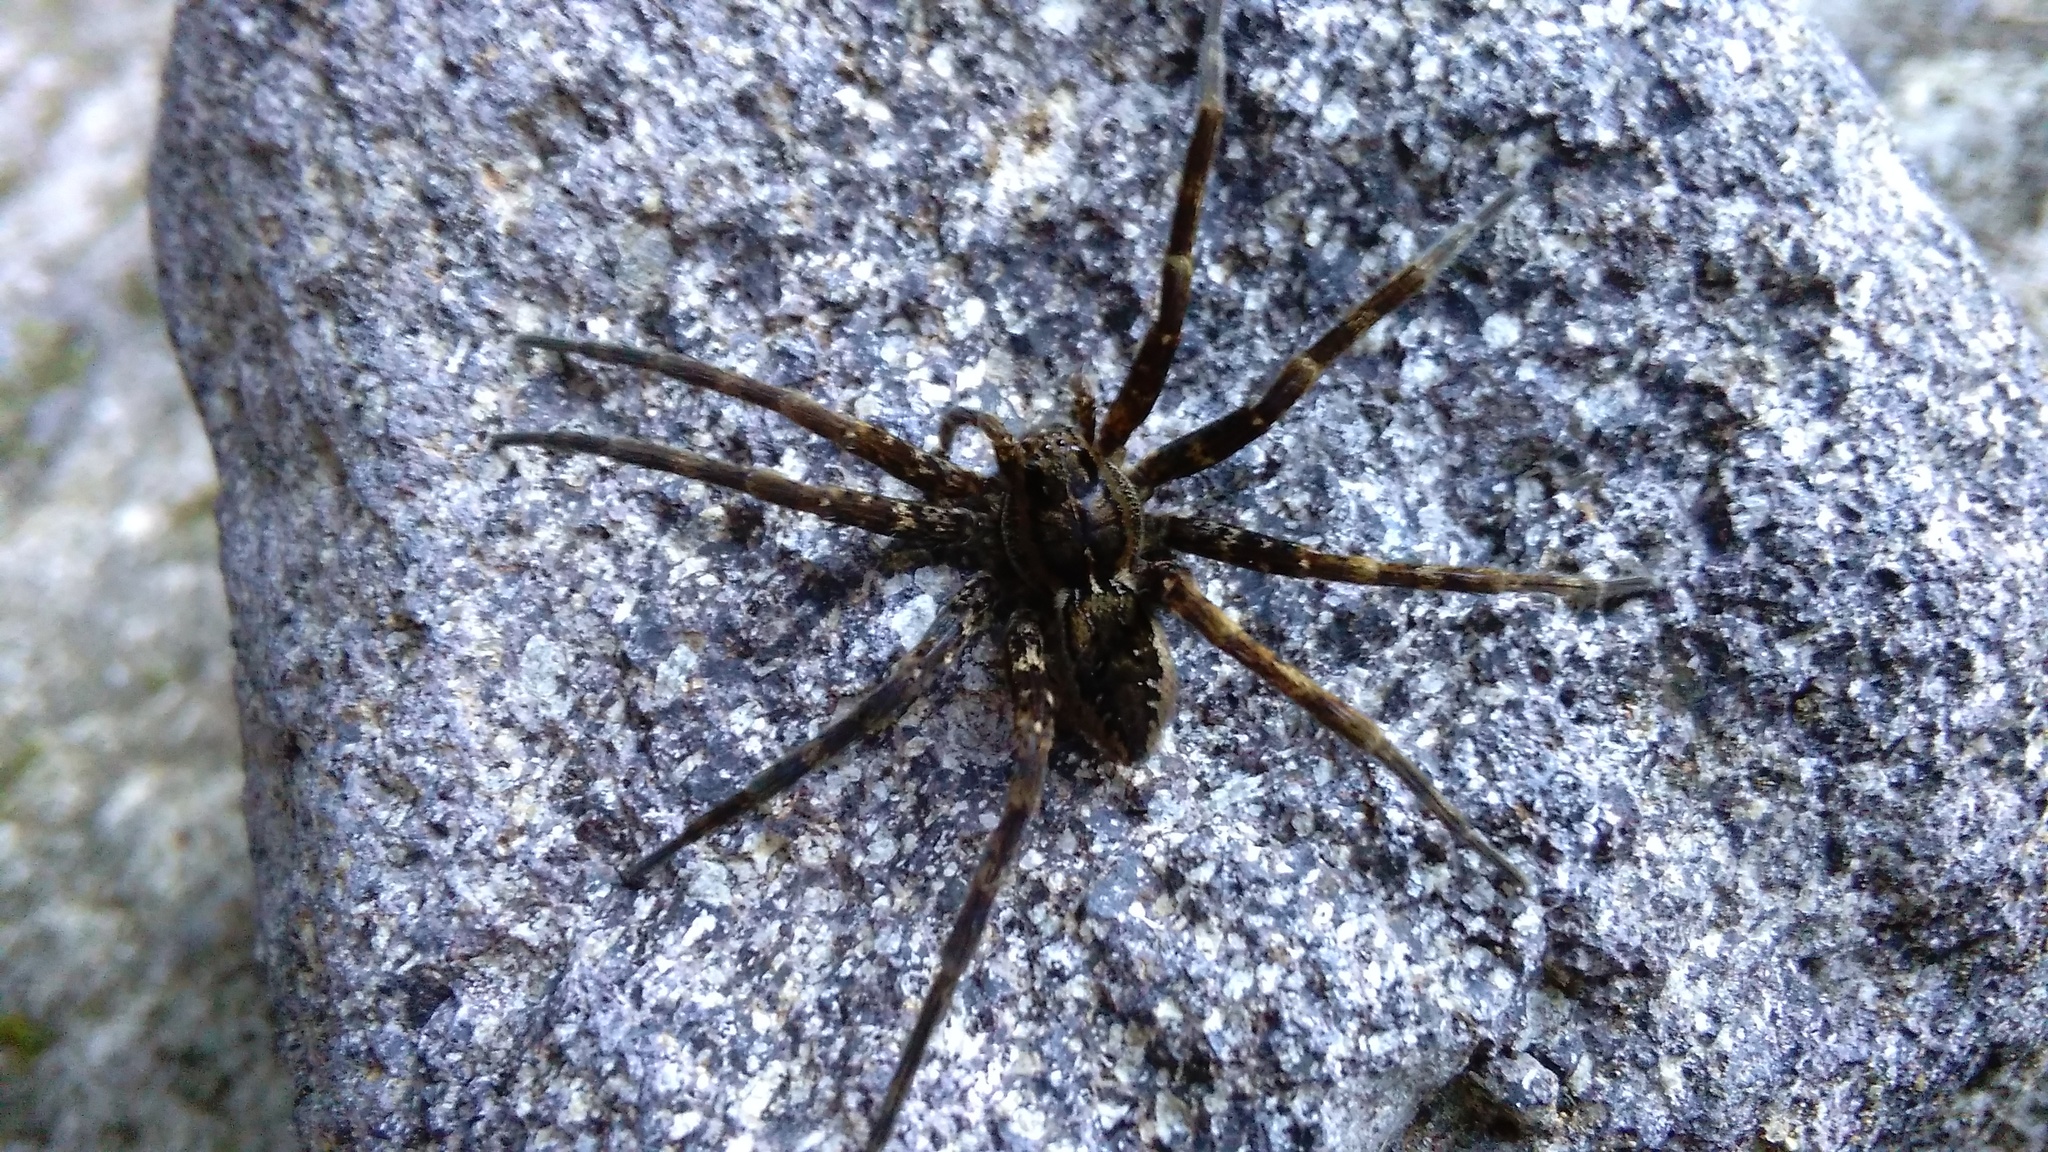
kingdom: Animalia
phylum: Arthropoda
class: Arachnida
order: Araneae
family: Pisauridae
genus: Dolomedes
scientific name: Dolomedes dondalei
